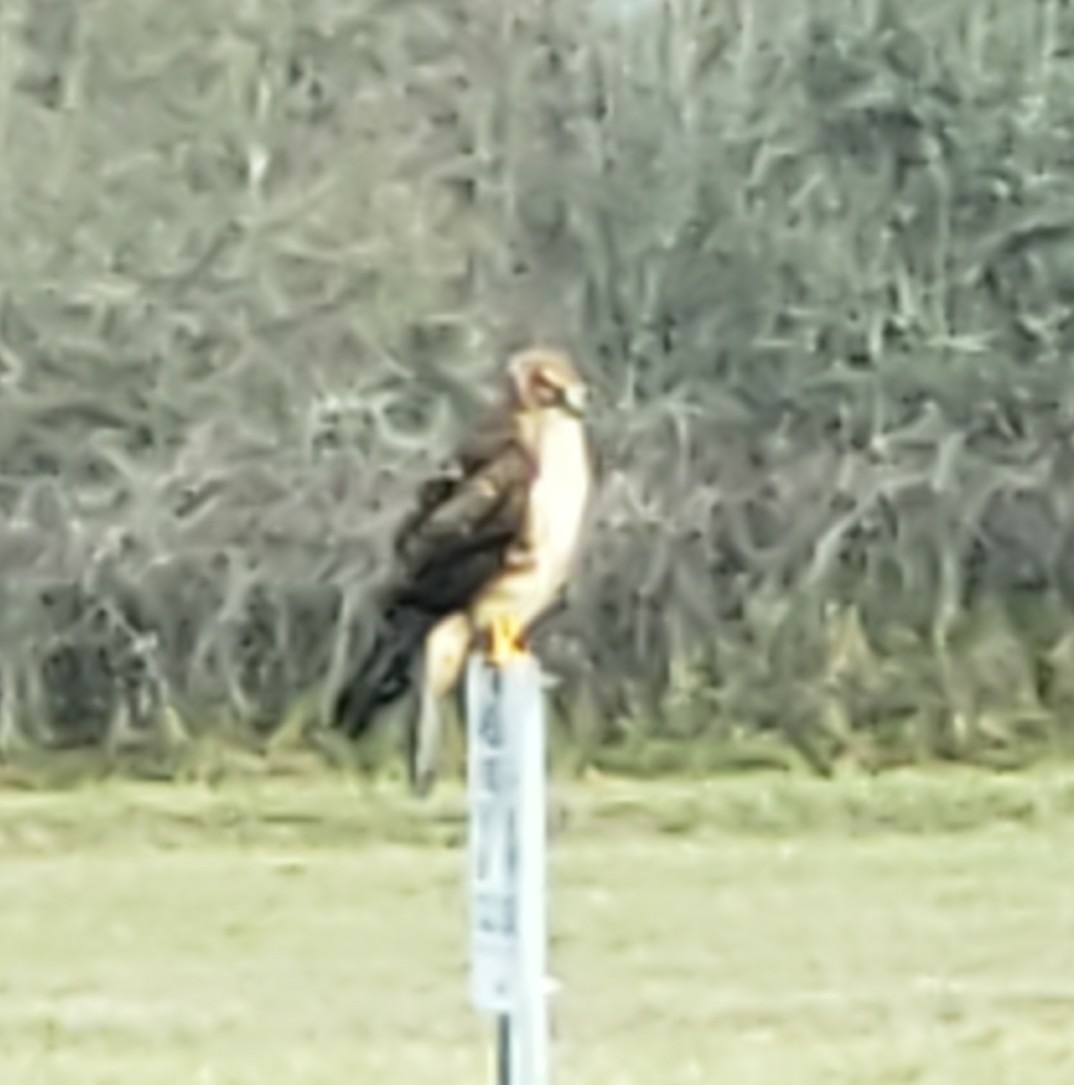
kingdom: Animalia
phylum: Chordata
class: Aves
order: Accipitriformes
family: Accipitridae
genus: Circus
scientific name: Circus cyaneus
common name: Hen harrier
